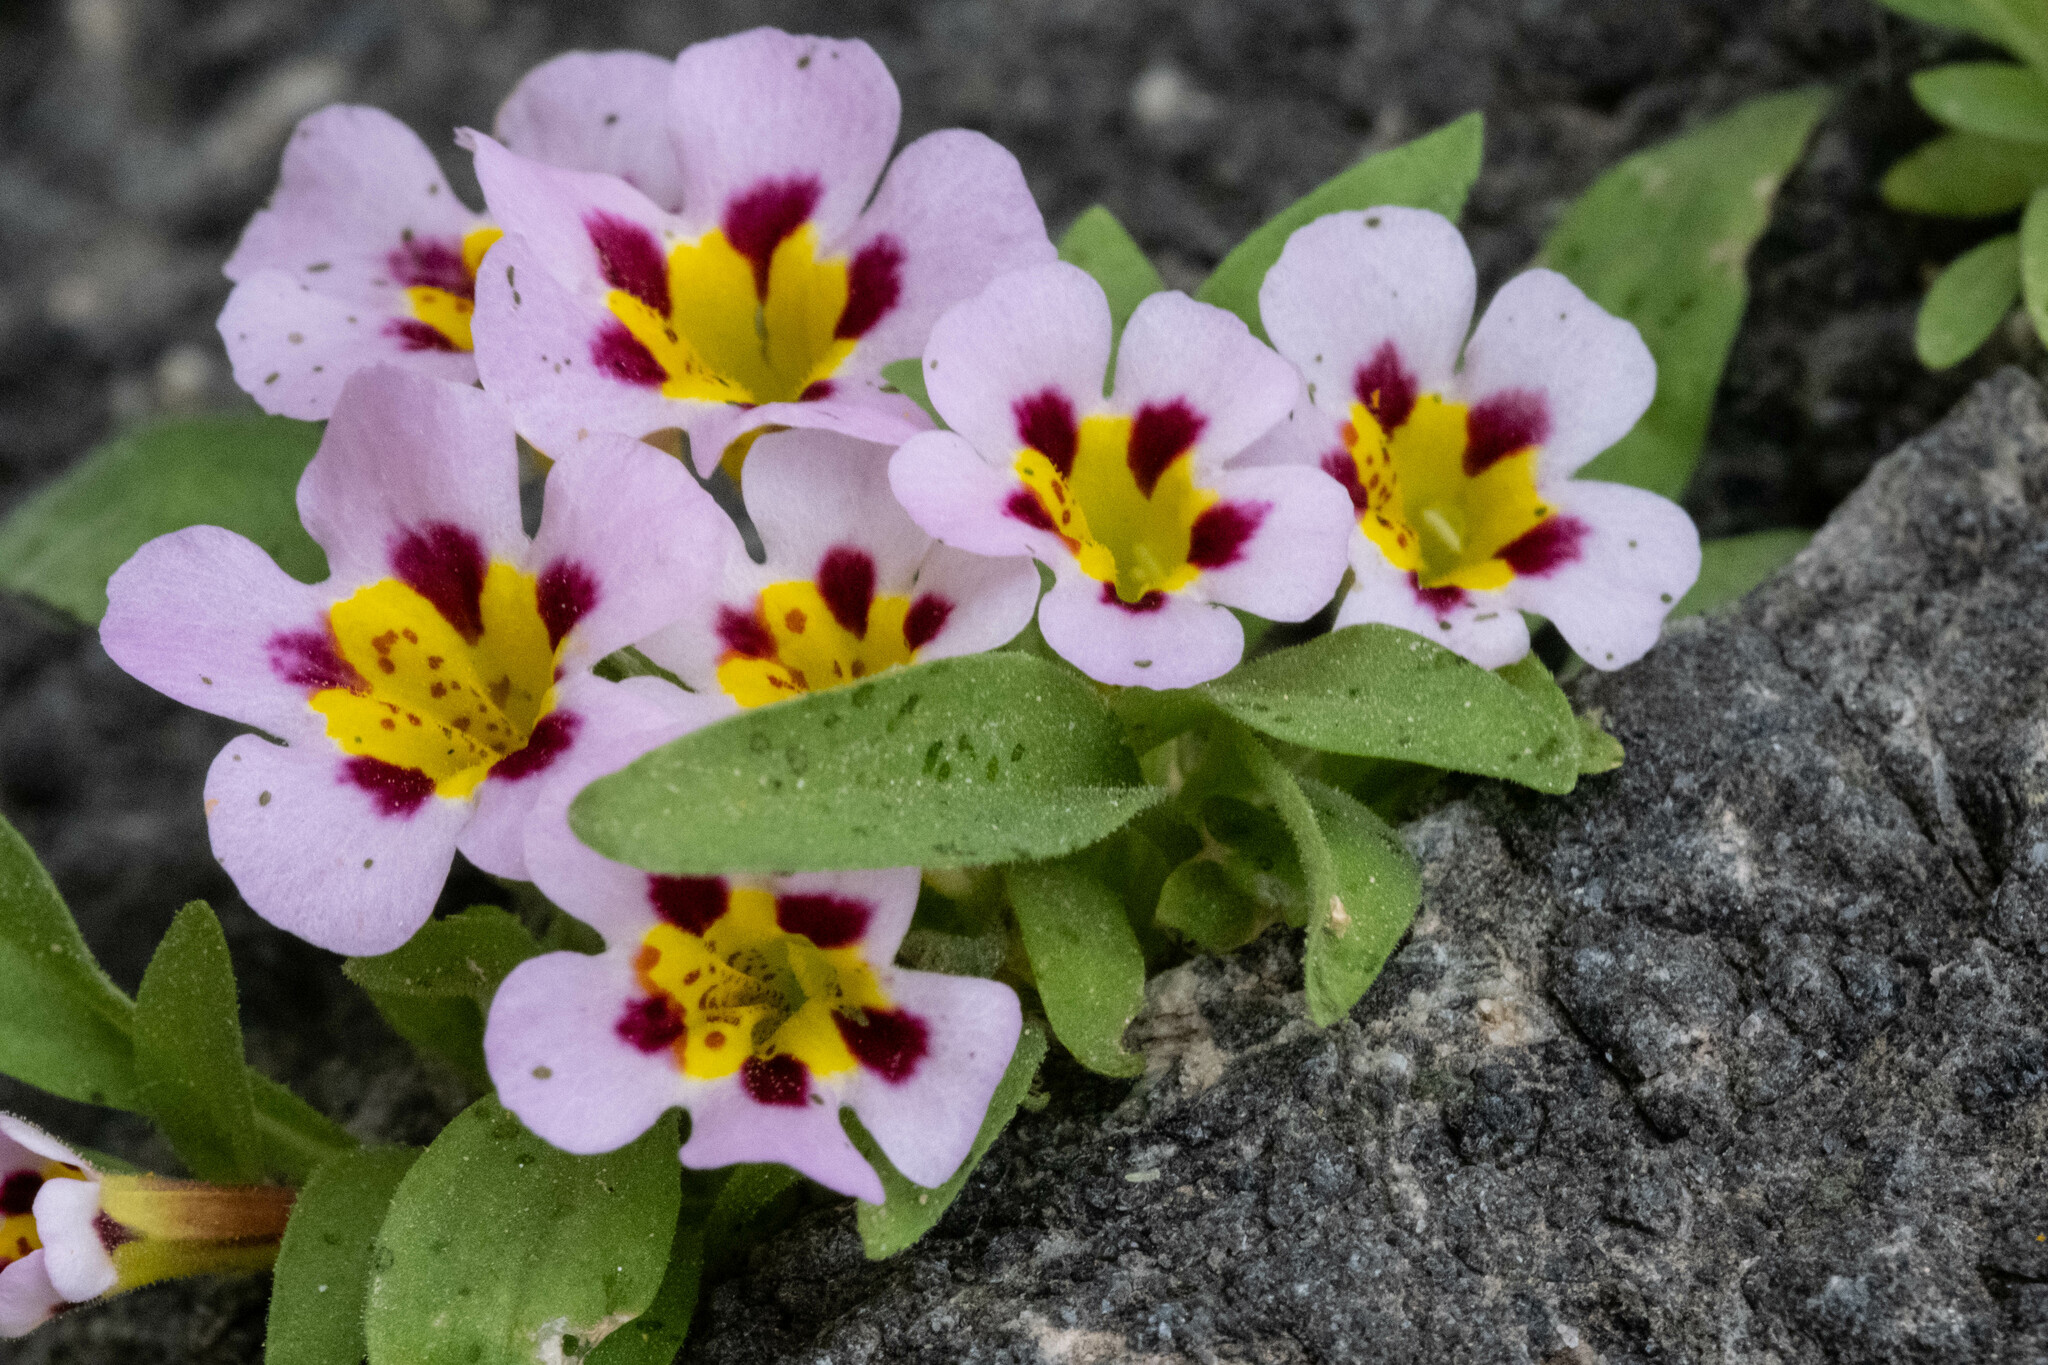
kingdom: Plantae
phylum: Tracheophyta
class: Magnoliopsida
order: Lamiales
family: Phrymaceae
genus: Diplacus
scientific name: Diplacus rupicola
